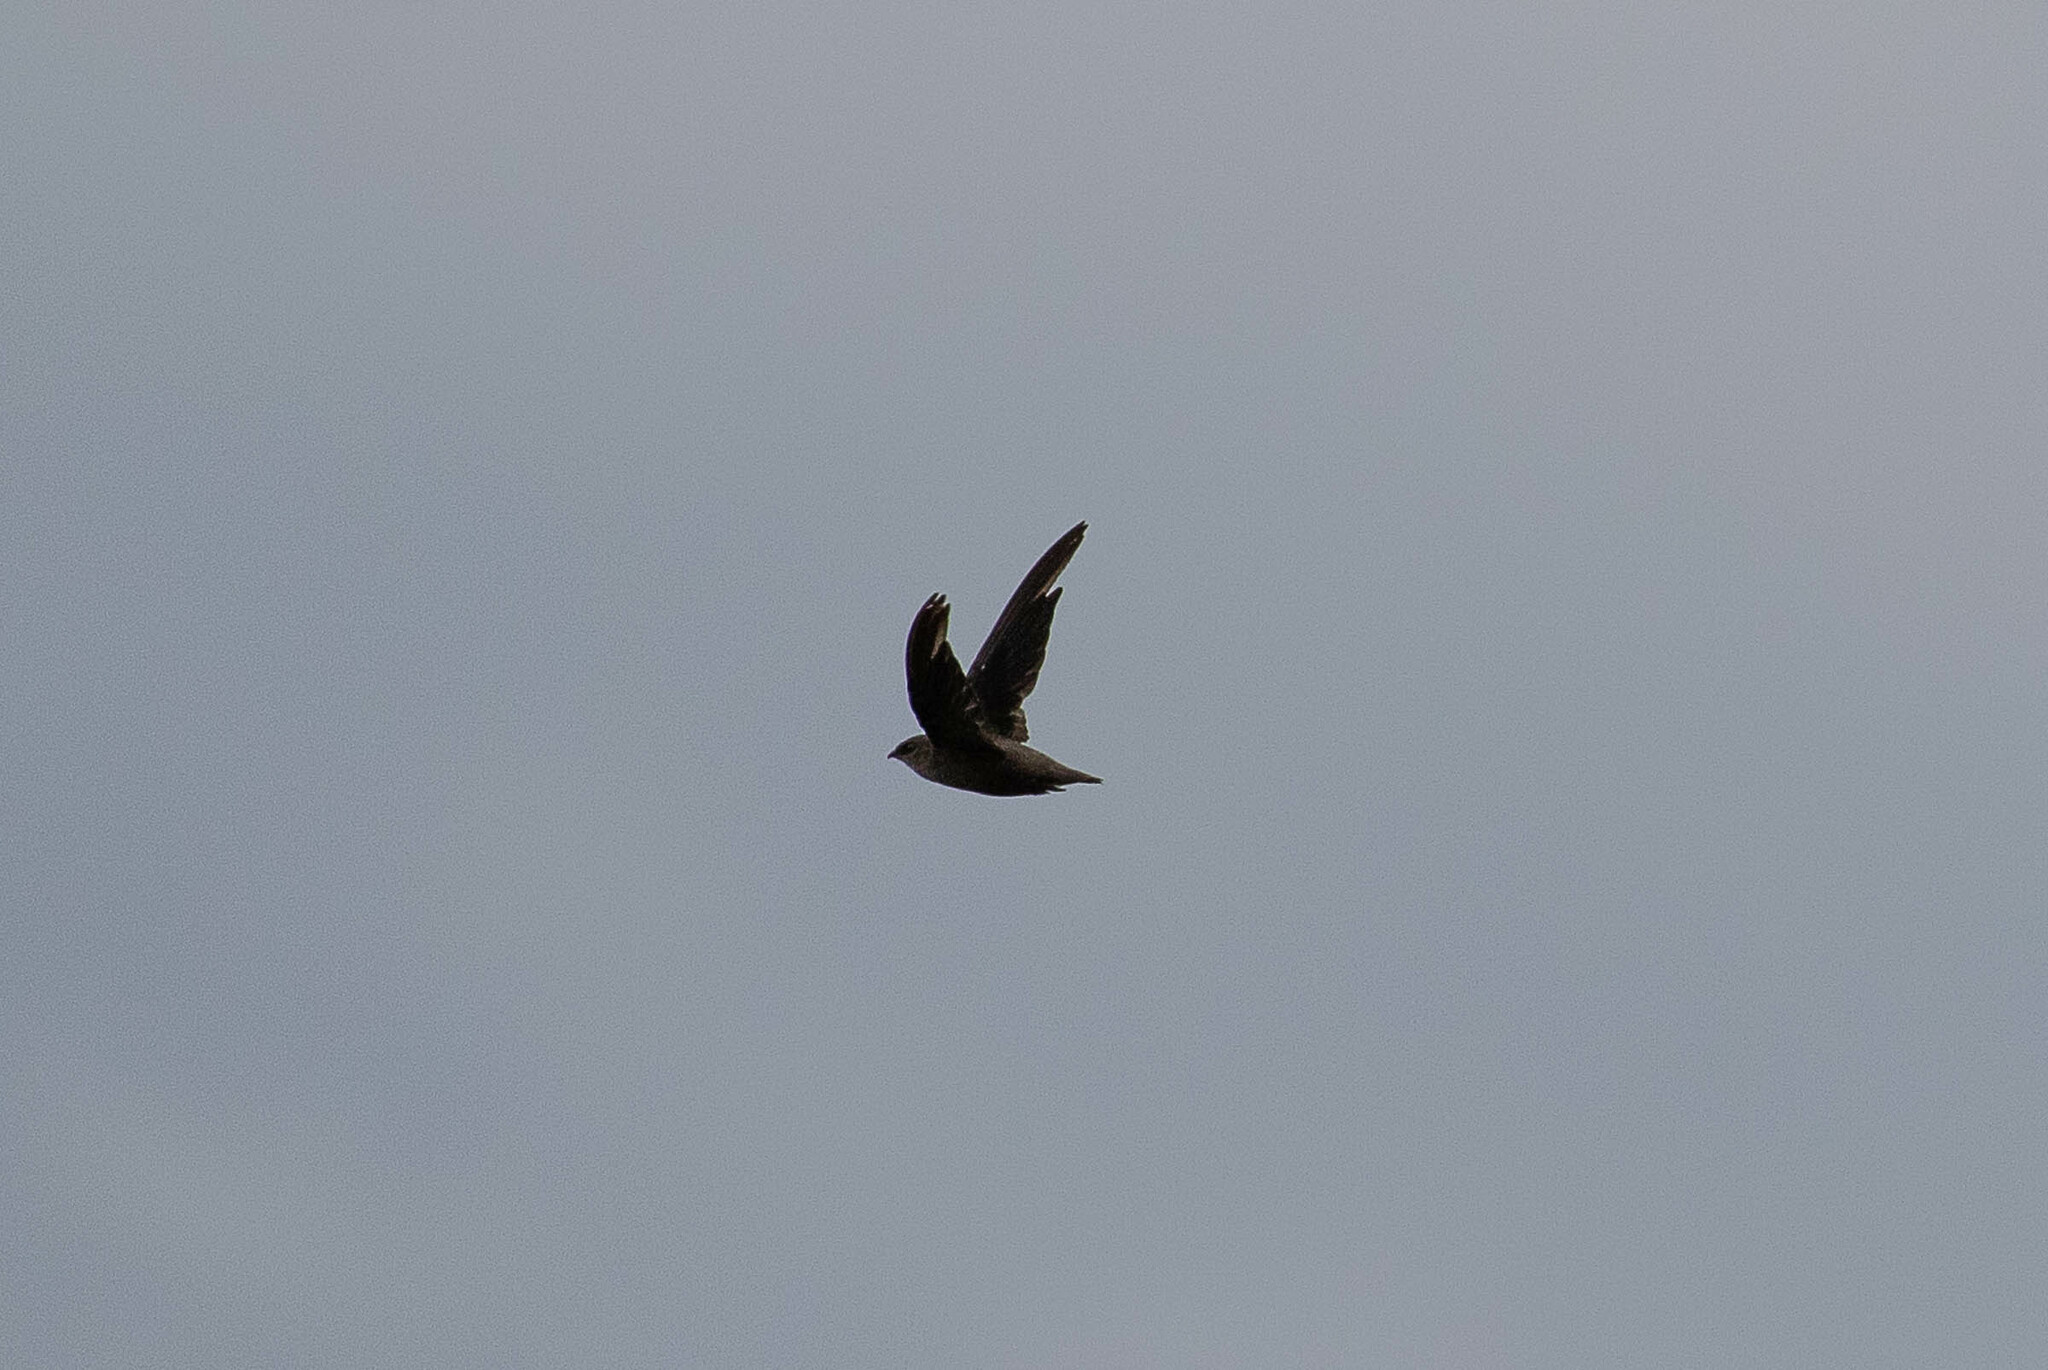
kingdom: Animalia
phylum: Chordata
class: Aves
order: Apodiformes
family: Apodidae
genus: Chaetura
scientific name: Chaetura pelagica
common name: Chimney swift
